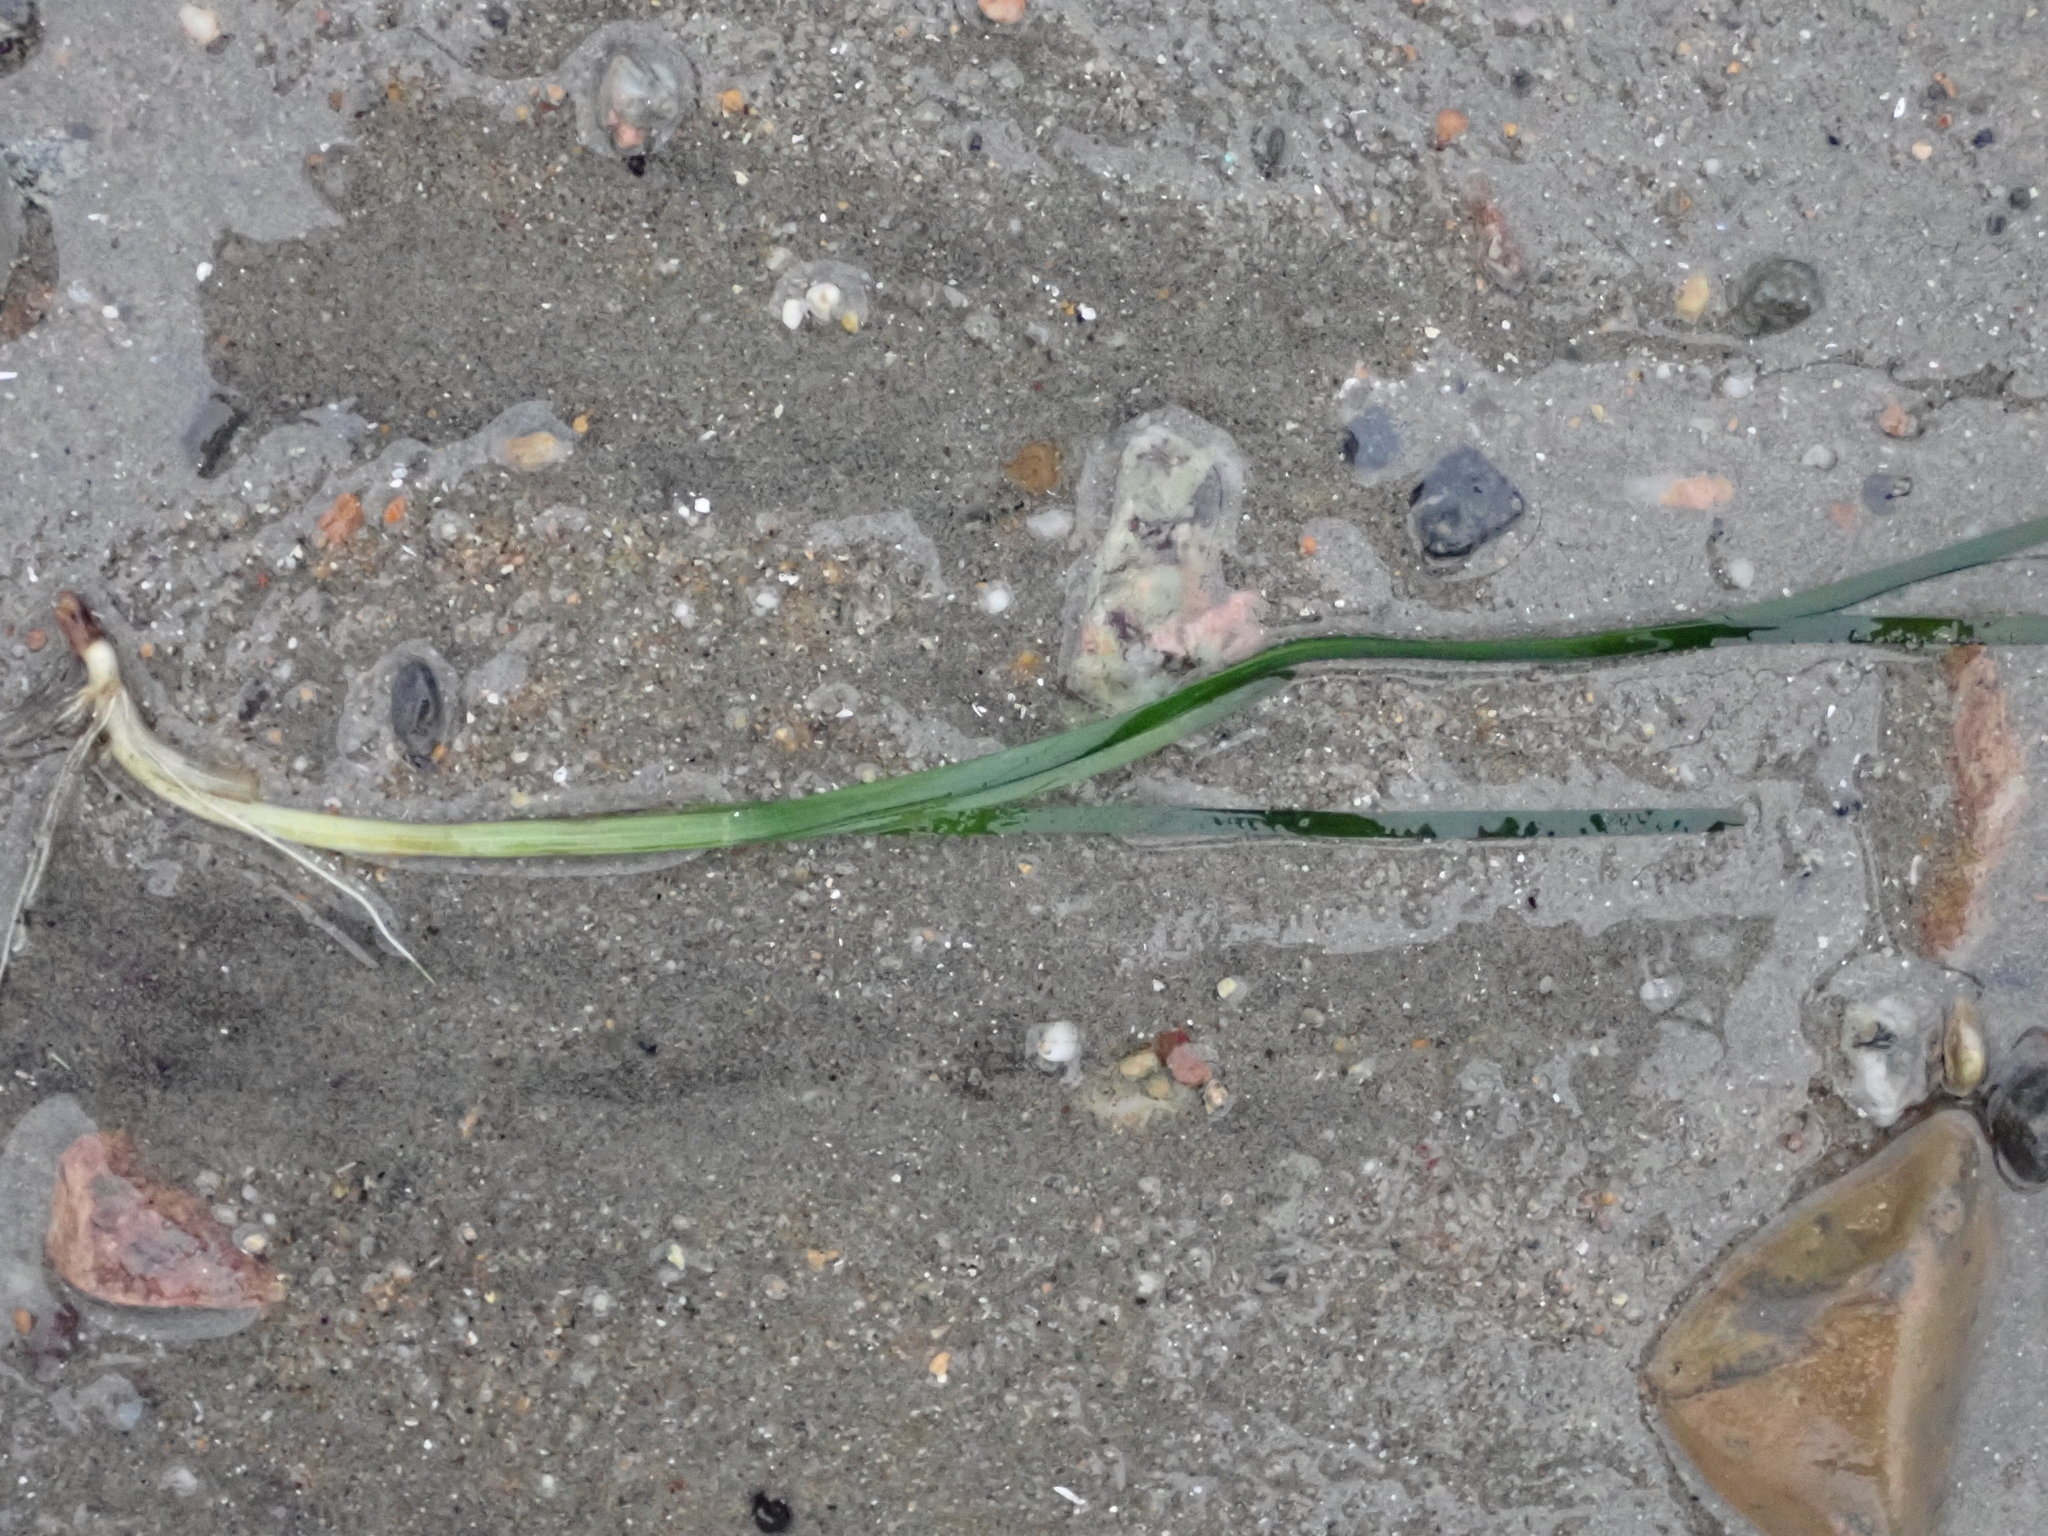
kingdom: Plantae
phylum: Tracheophyta
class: Liliopsida
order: Alismatales
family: Zosteraceae
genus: Zostera
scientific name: Zostera marina
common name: Eelgrass
